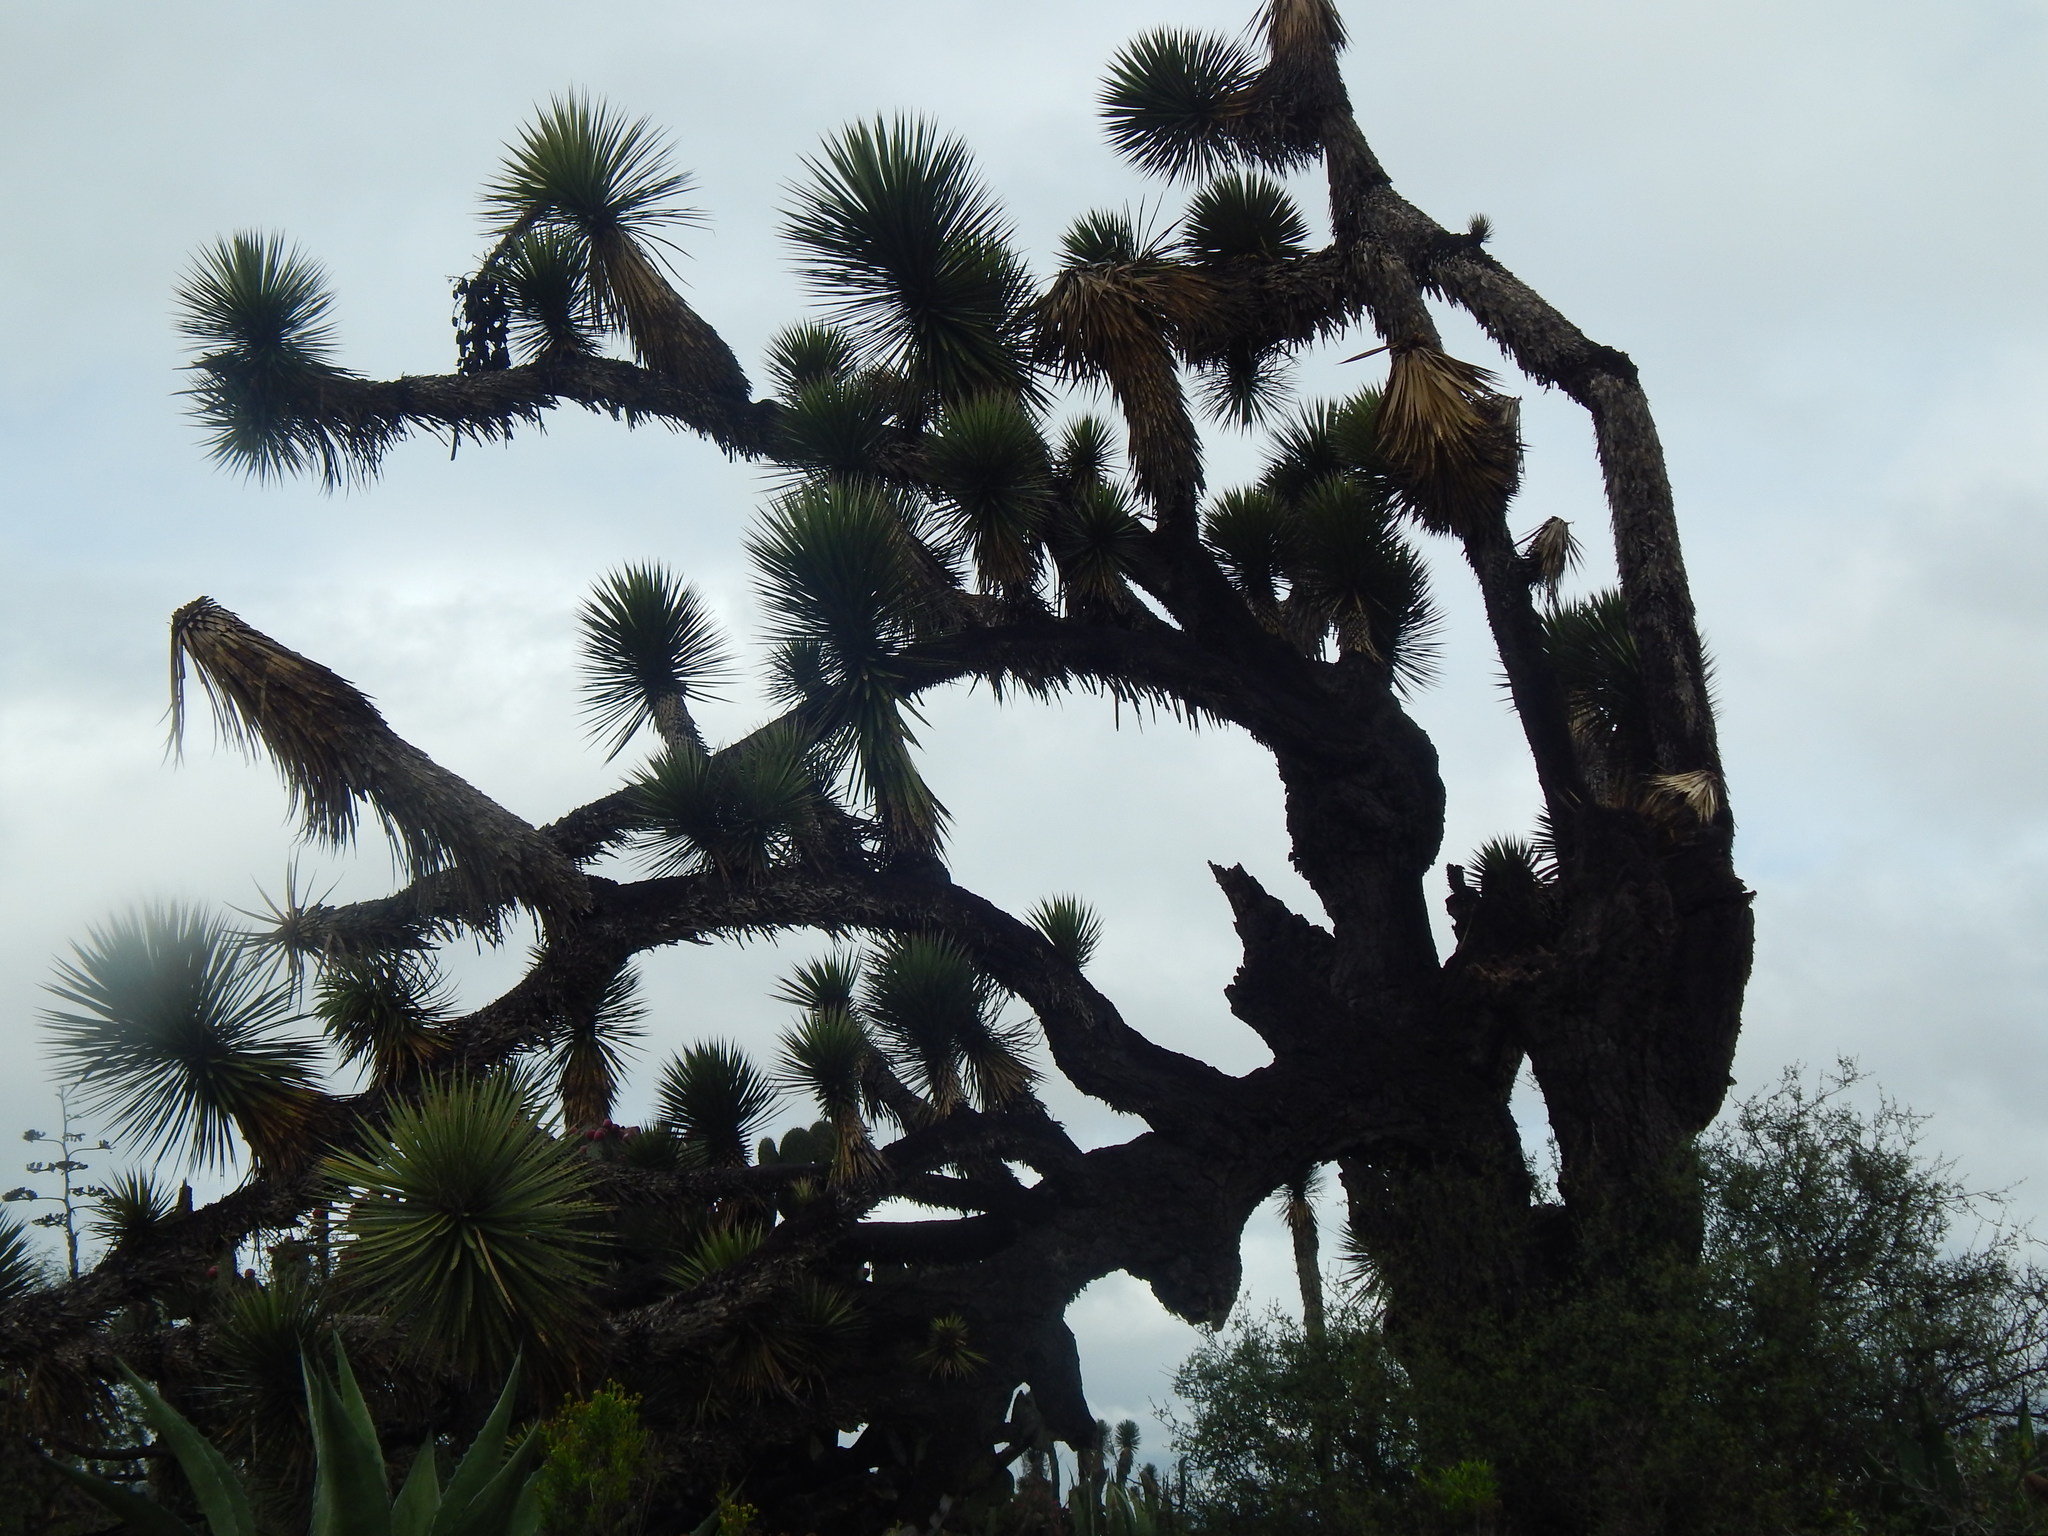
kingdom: Plantae
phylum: Tracheophyta
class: Liliopsida
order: Asparagales
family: Asparagaceae
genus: Yucca
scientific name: Yucca filifera
